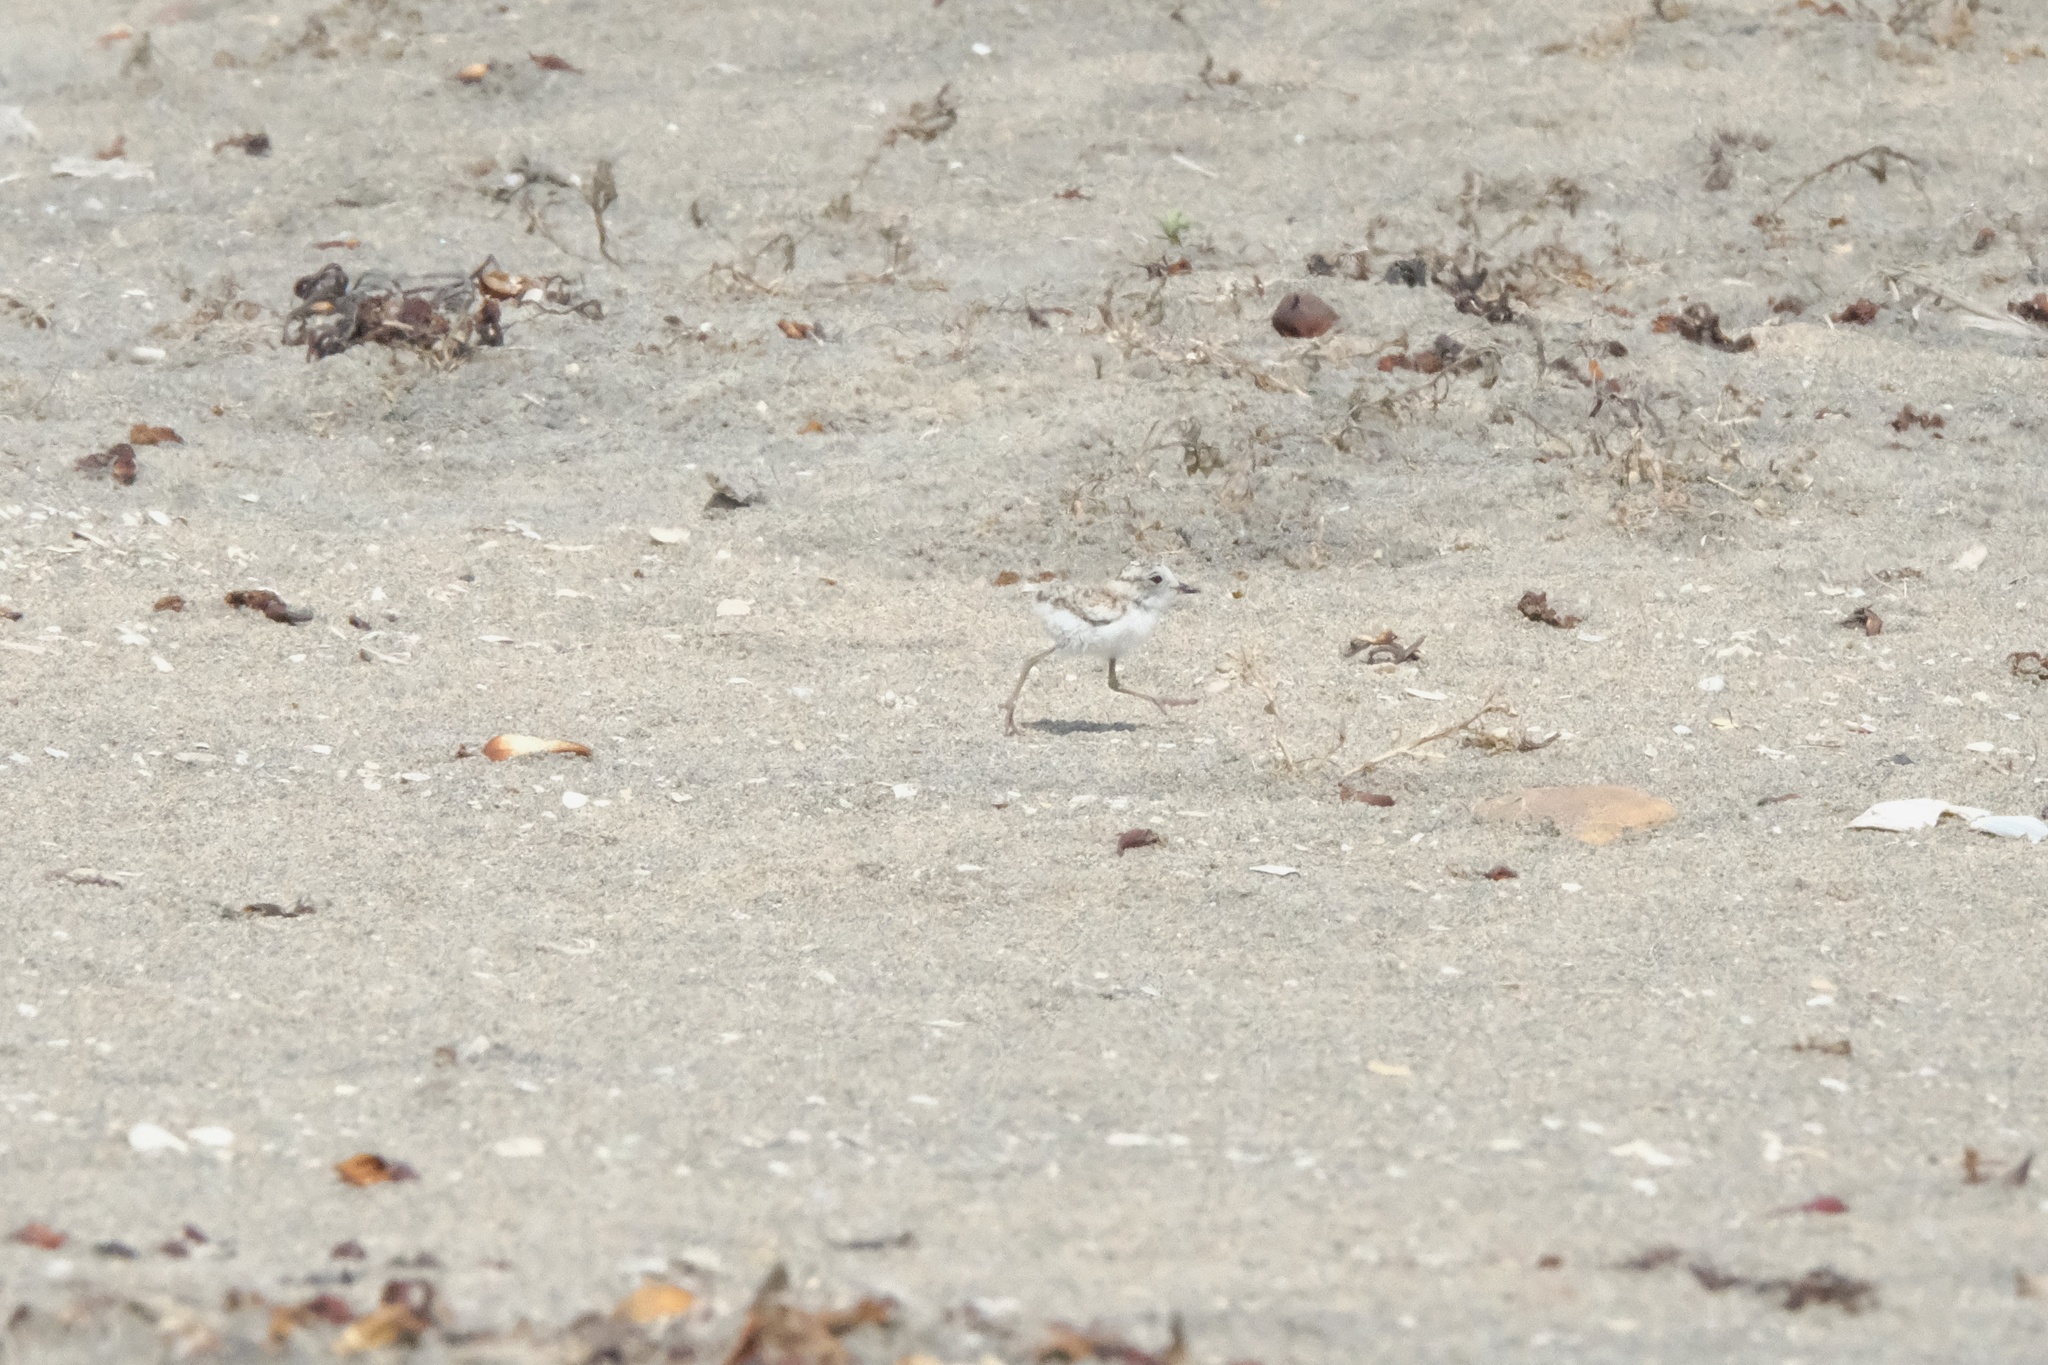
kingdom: Animalia
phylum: Chordata
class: Aves
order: Charadriiformes
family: Charadriidae
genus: Anarhynchus
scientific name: Anarhynchus
